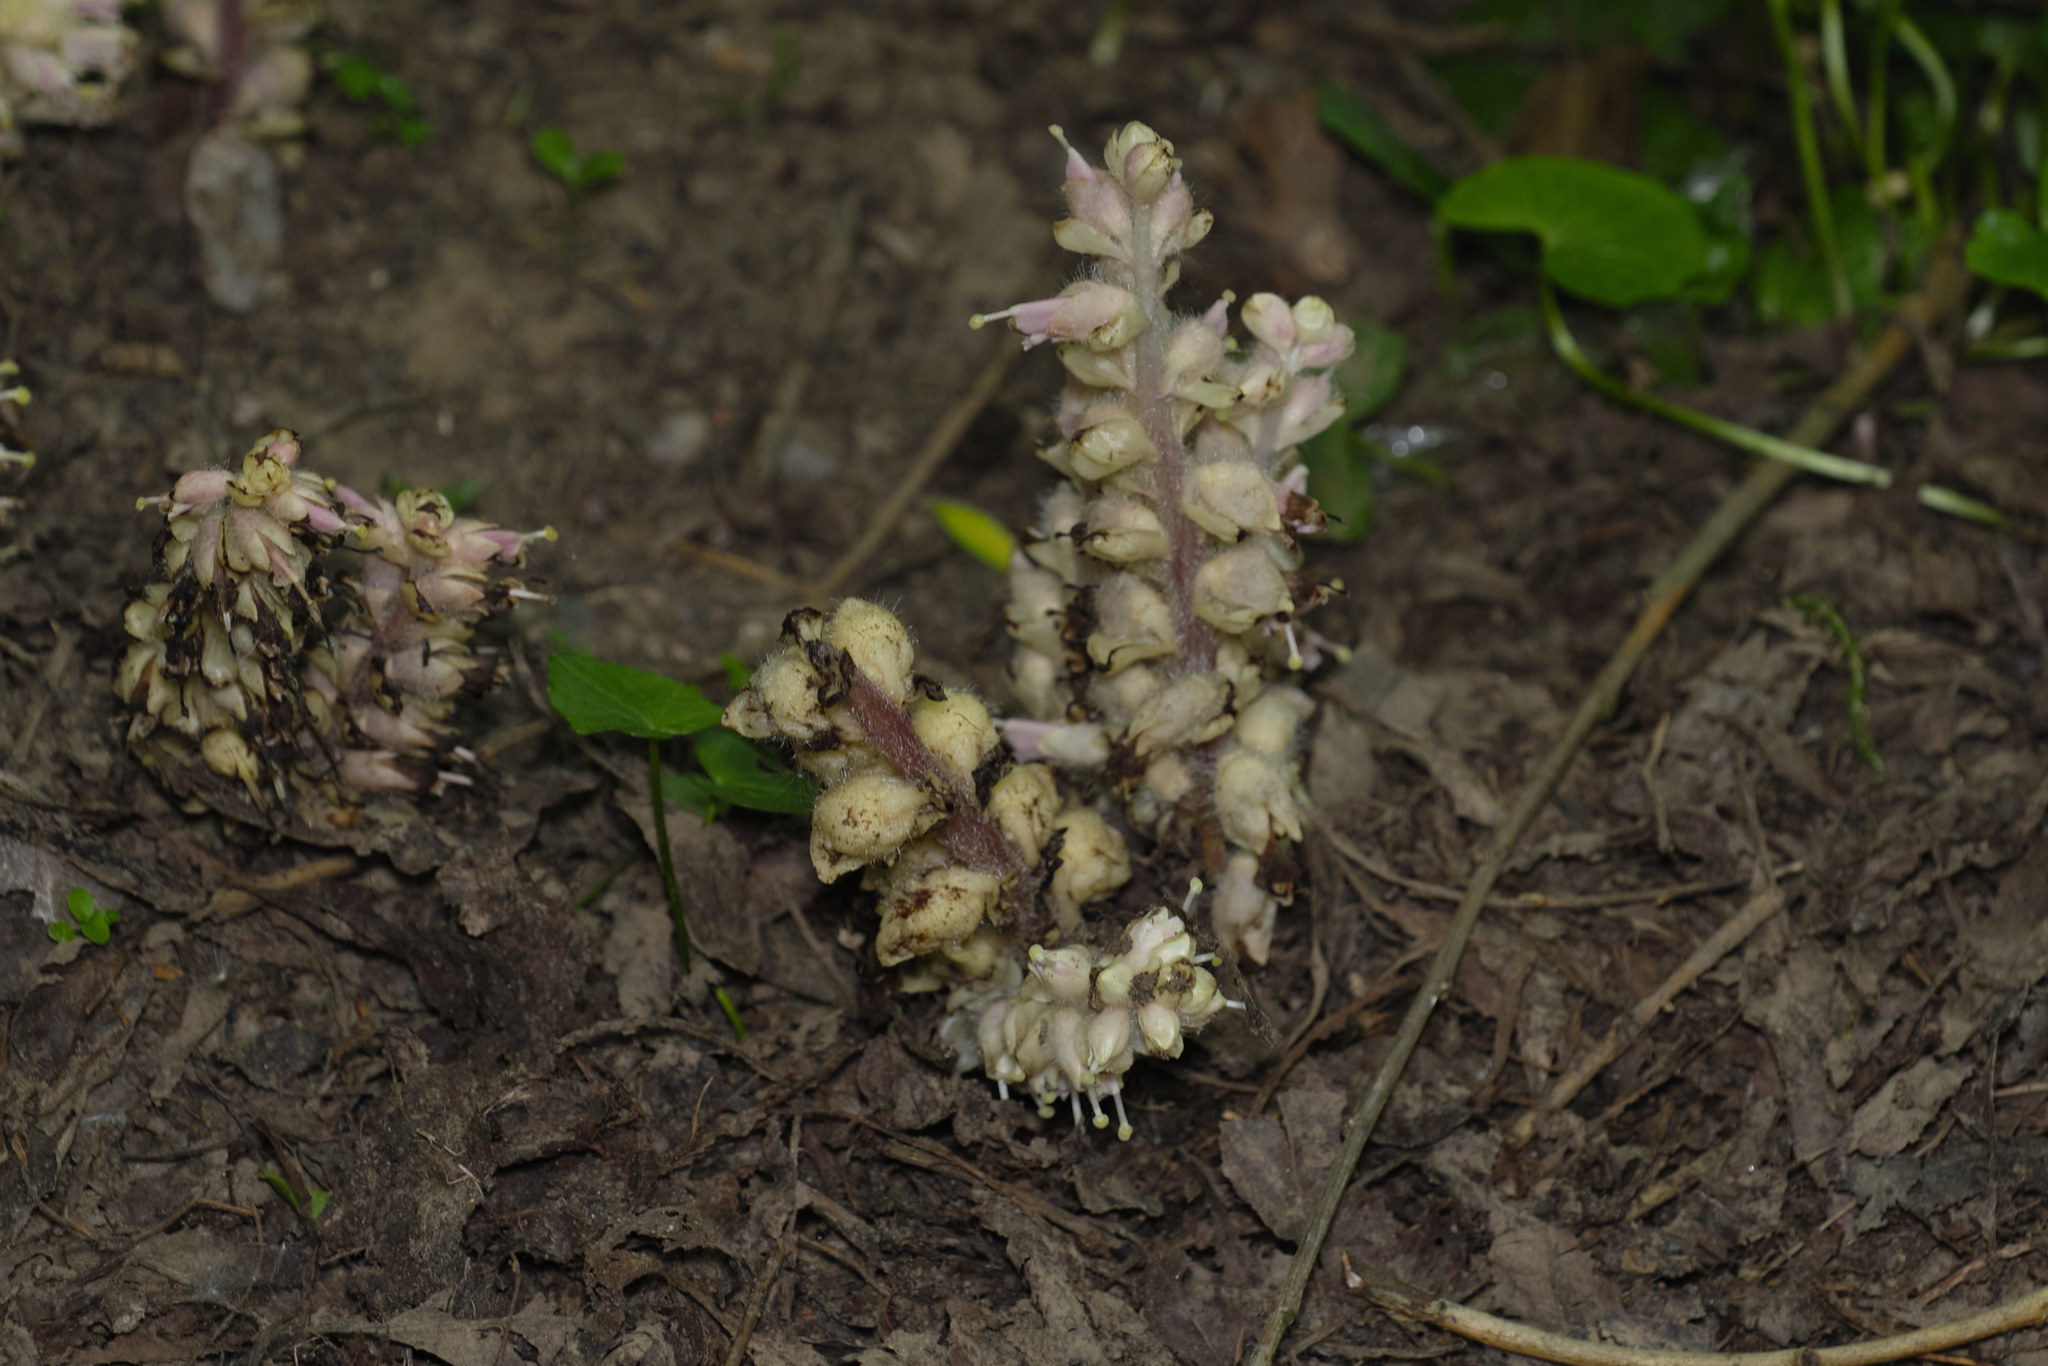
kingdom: Plantae
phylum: Tracheophyta
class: Magnoliopsida
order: Lamiales
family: Orobanchaceae
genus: Lathraea
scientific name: Lathraea squamaria
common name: Toothwort
